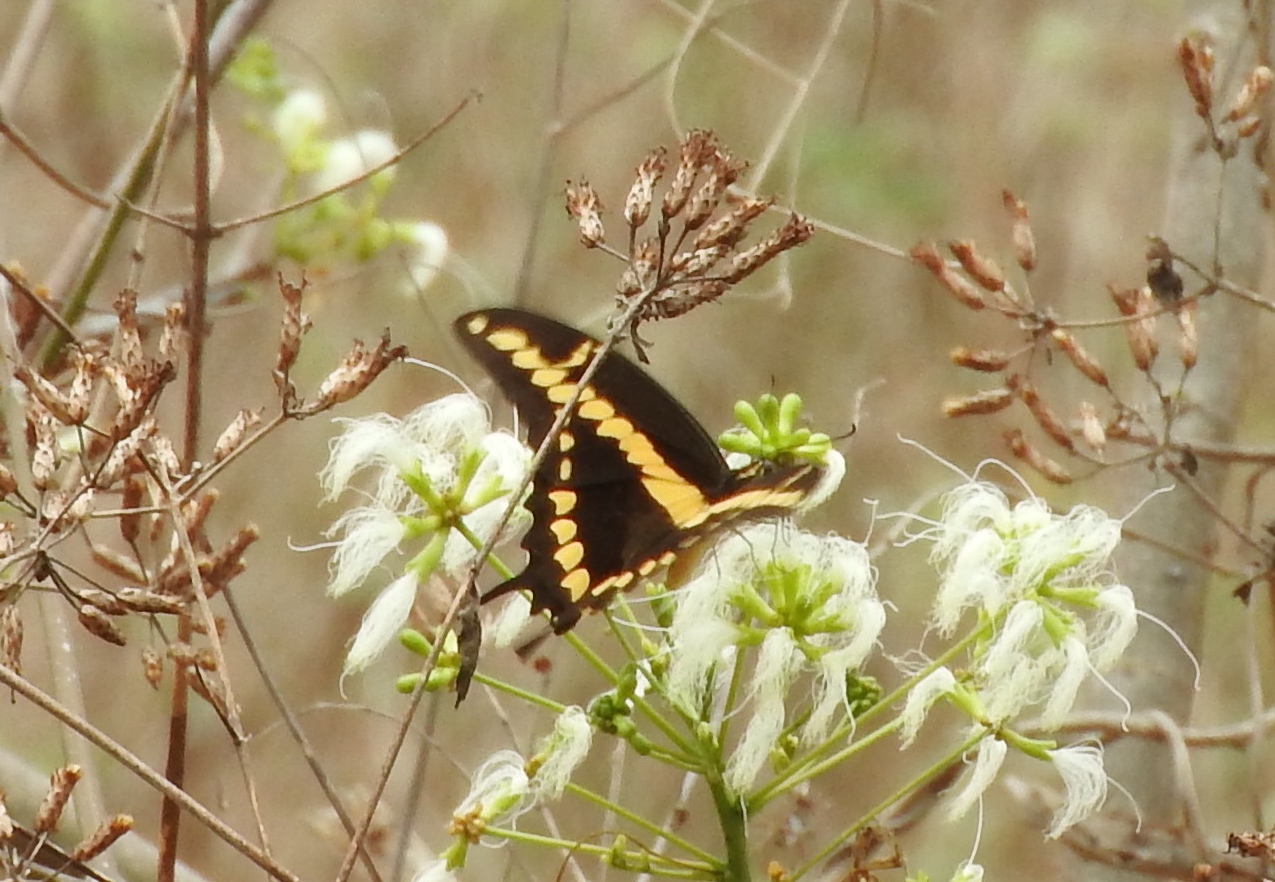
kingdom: Animalia
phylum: Arthropoda
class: Insecta
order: Lepidoptera
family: Papilionidae
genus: Papilio
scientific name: Papilio rumiko
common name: Western giant swallowtail
